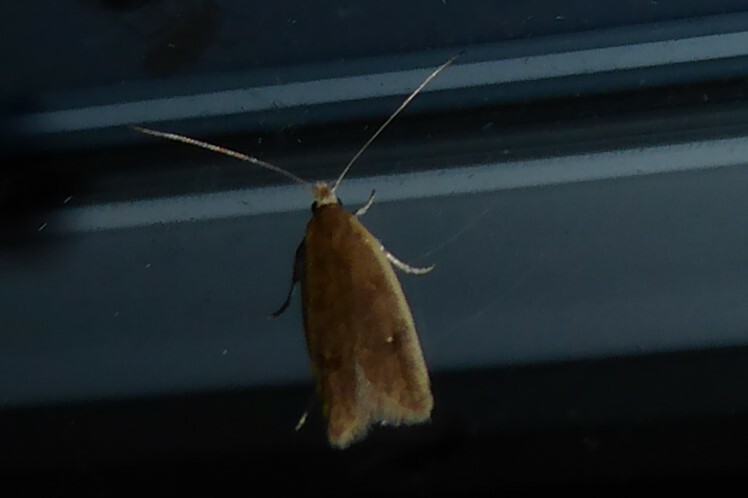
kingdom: Animalia
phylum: Arthropoda
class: Insecta
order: Lepidoptera
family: Oecophoridae
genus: Gymnobathra
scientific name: Gymnobathra parca
